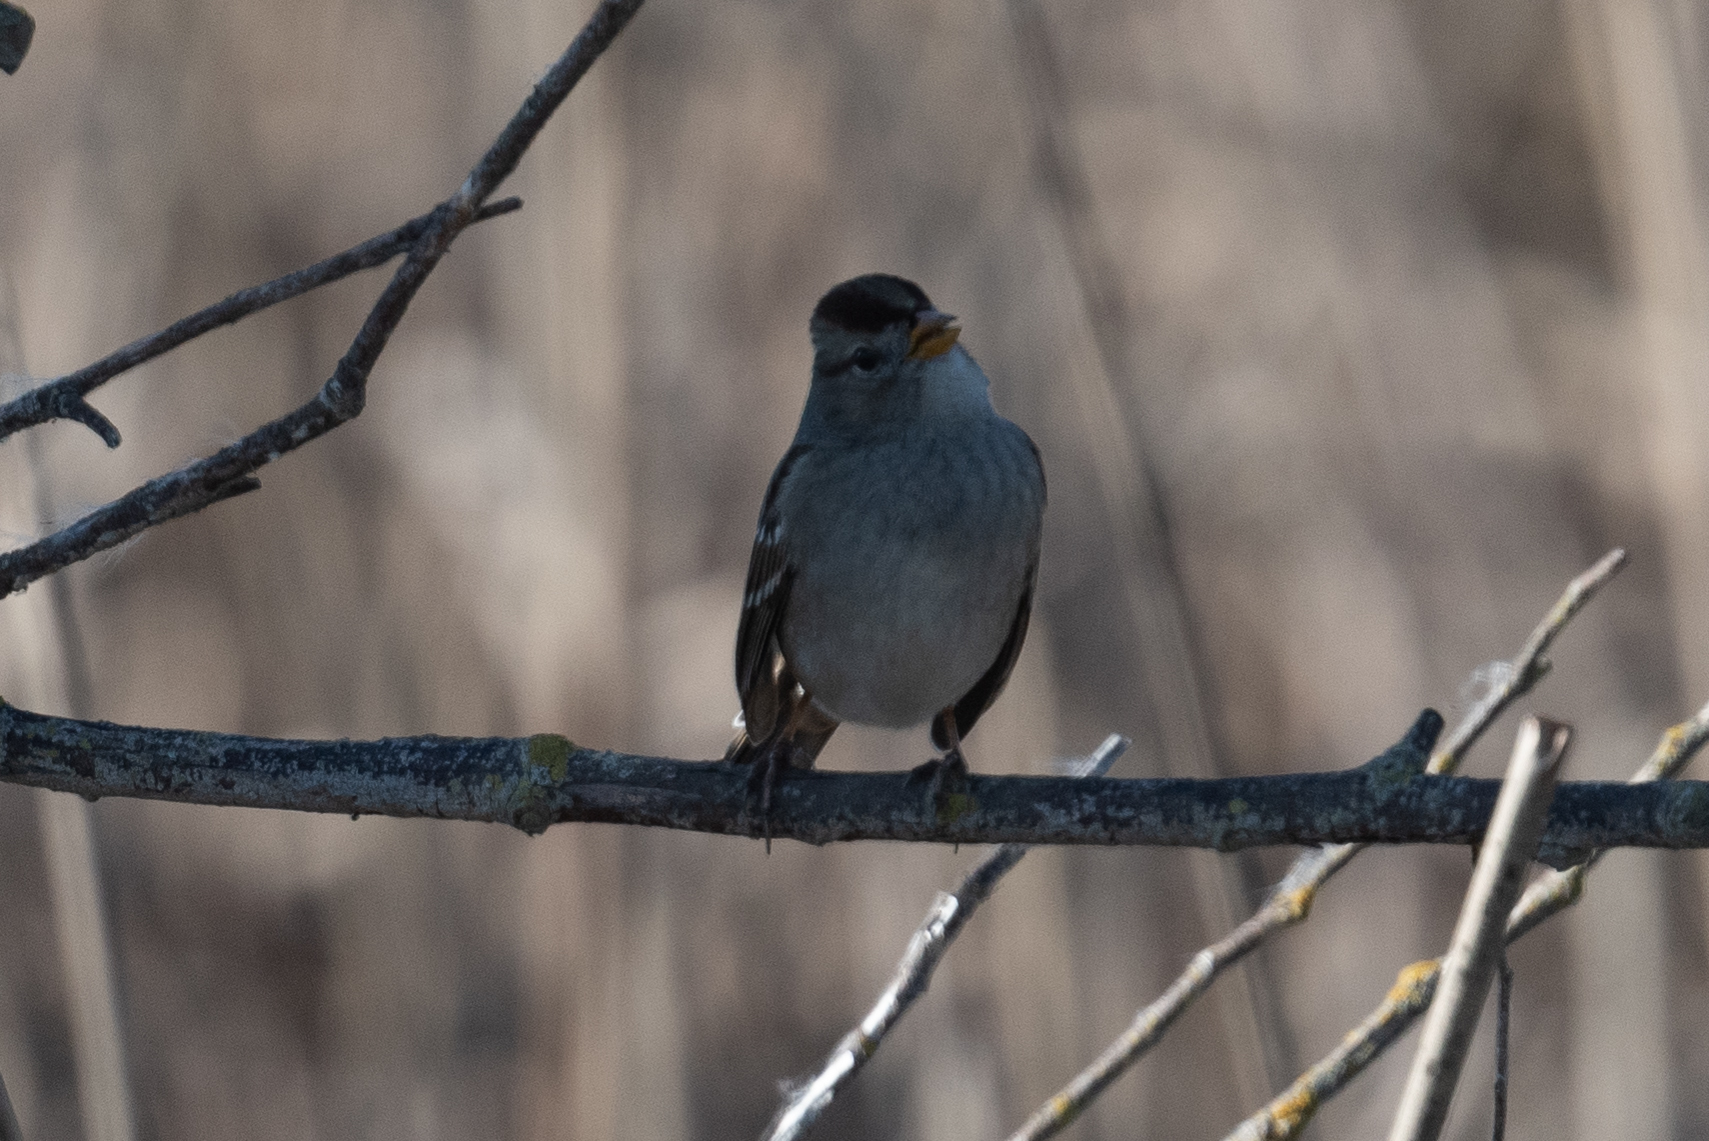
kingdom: Animalia
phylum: Chordata
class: Aves
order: Passeriformes
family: Passerellidae
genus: Zonotrichia
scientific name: Zonotrichia leucophrys
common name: White-crowned sparrow
